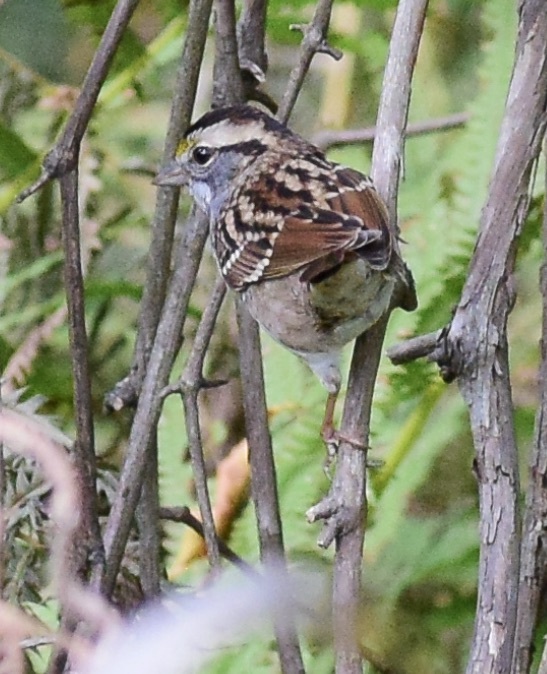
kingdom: Animalia
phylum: Chordata
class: Aves
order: Passeriformes
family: Passerellidae
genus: Zonotrichia
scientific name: Zonotrichia albicollis
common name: White-throated sparrow
